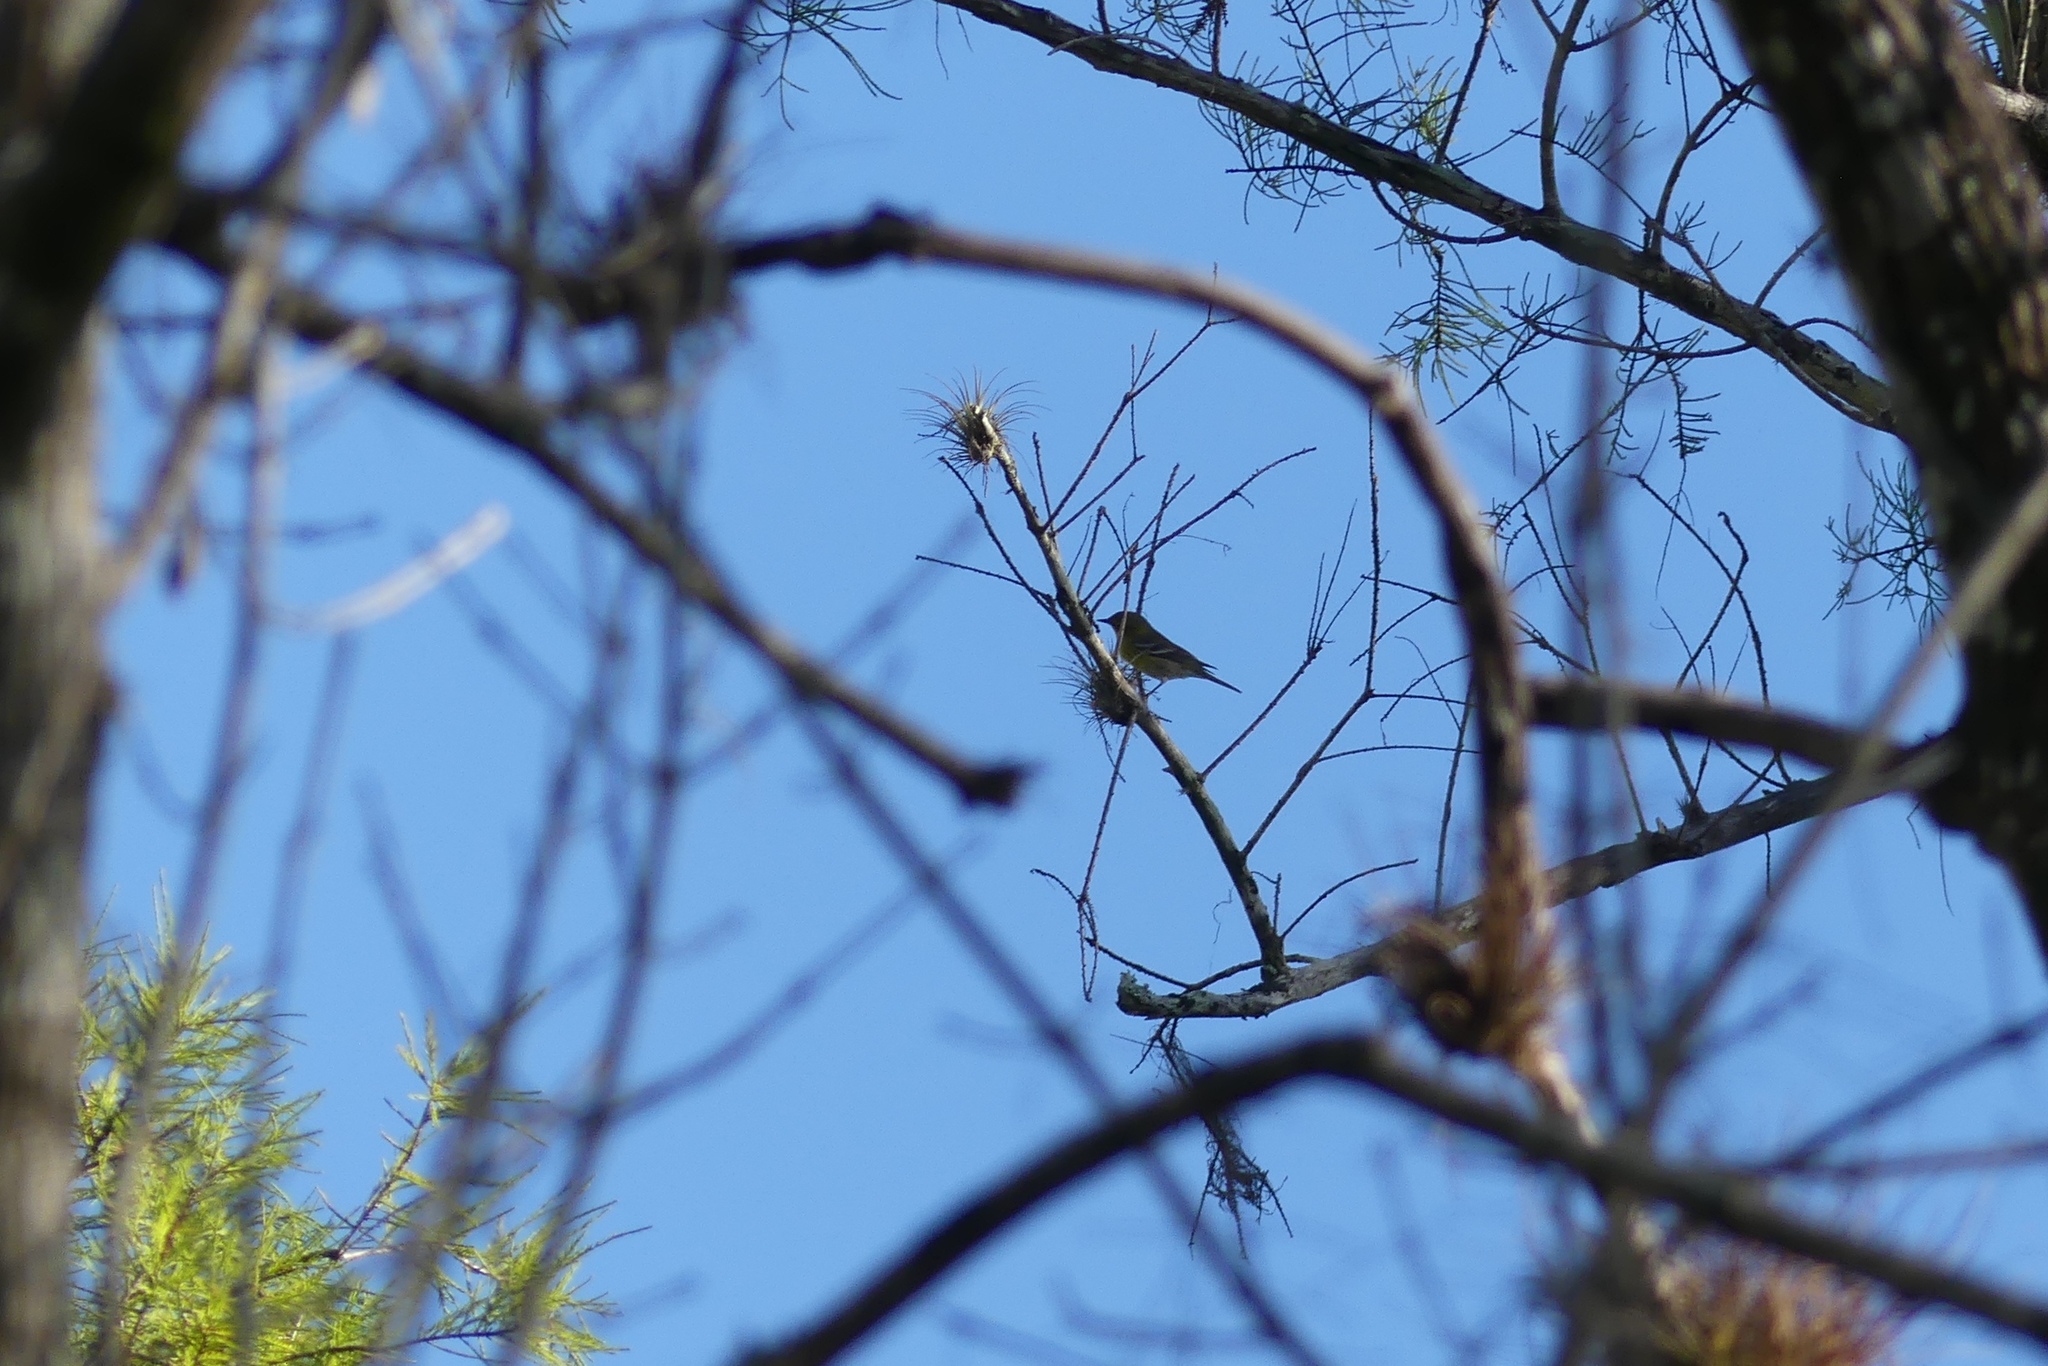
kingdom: Animalia
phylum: Chordata
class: Aves
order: Passeriformes
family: Parulidae
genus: Setophaga
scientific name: Setophaga pinus
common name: Pine warbler
